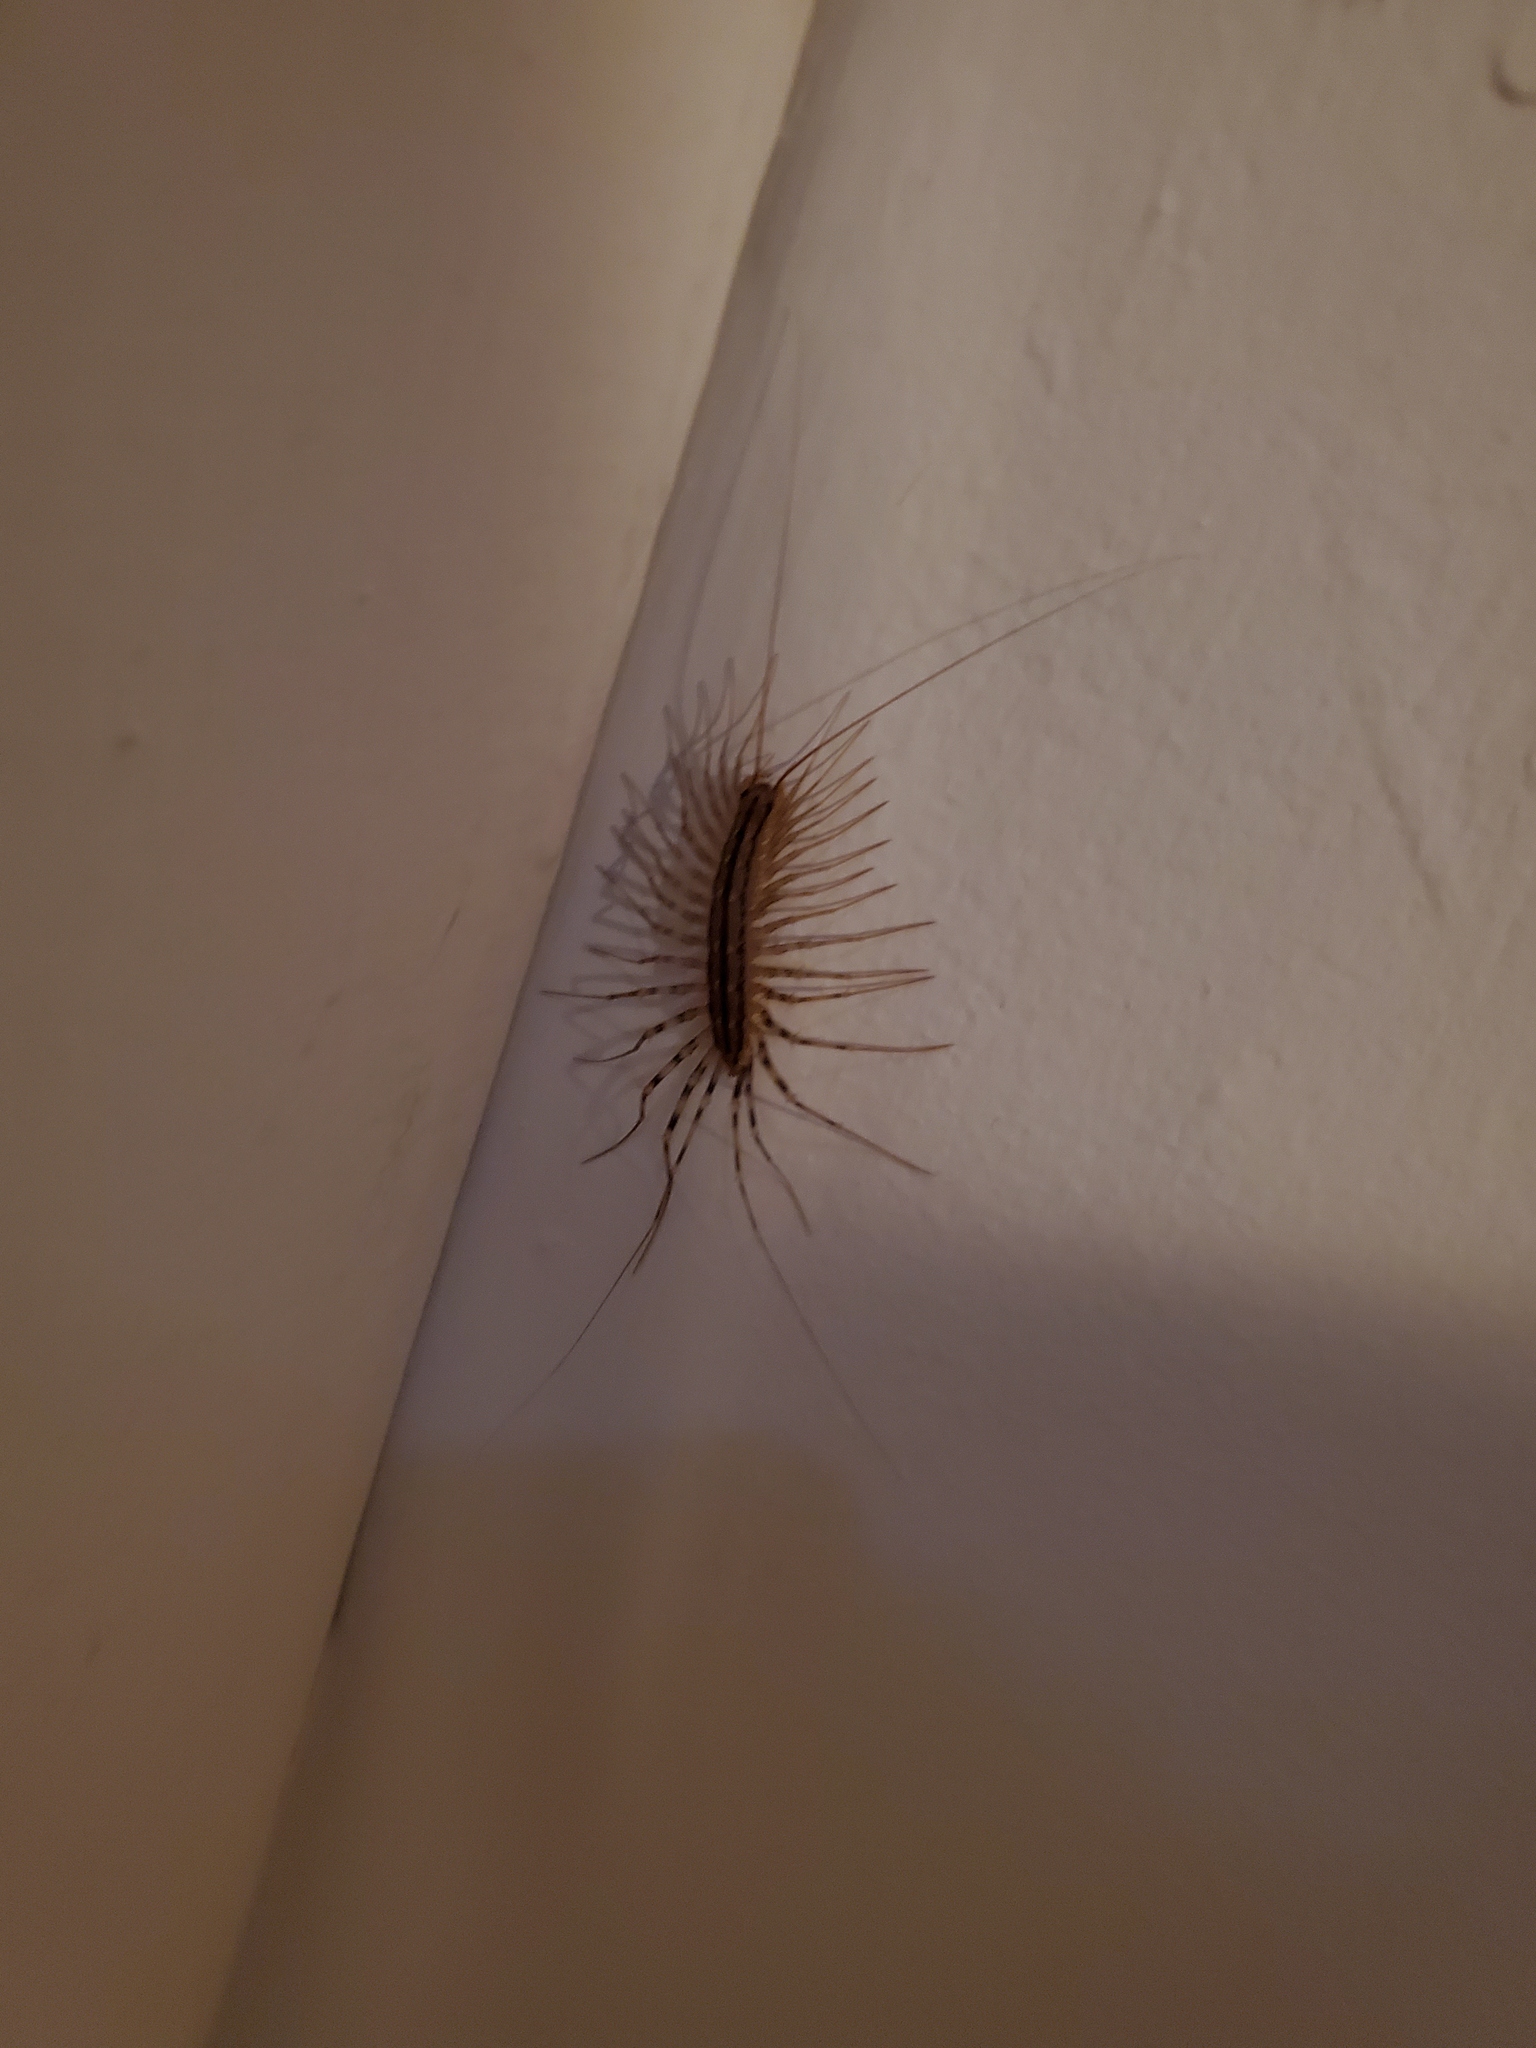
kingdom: Animalia
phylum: Arthropoda
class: Chilopoda
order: Scutigeromorpha
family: Scutigeridae
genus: Scutigera
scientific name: Scutigera coleoptrata
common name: House centipede
